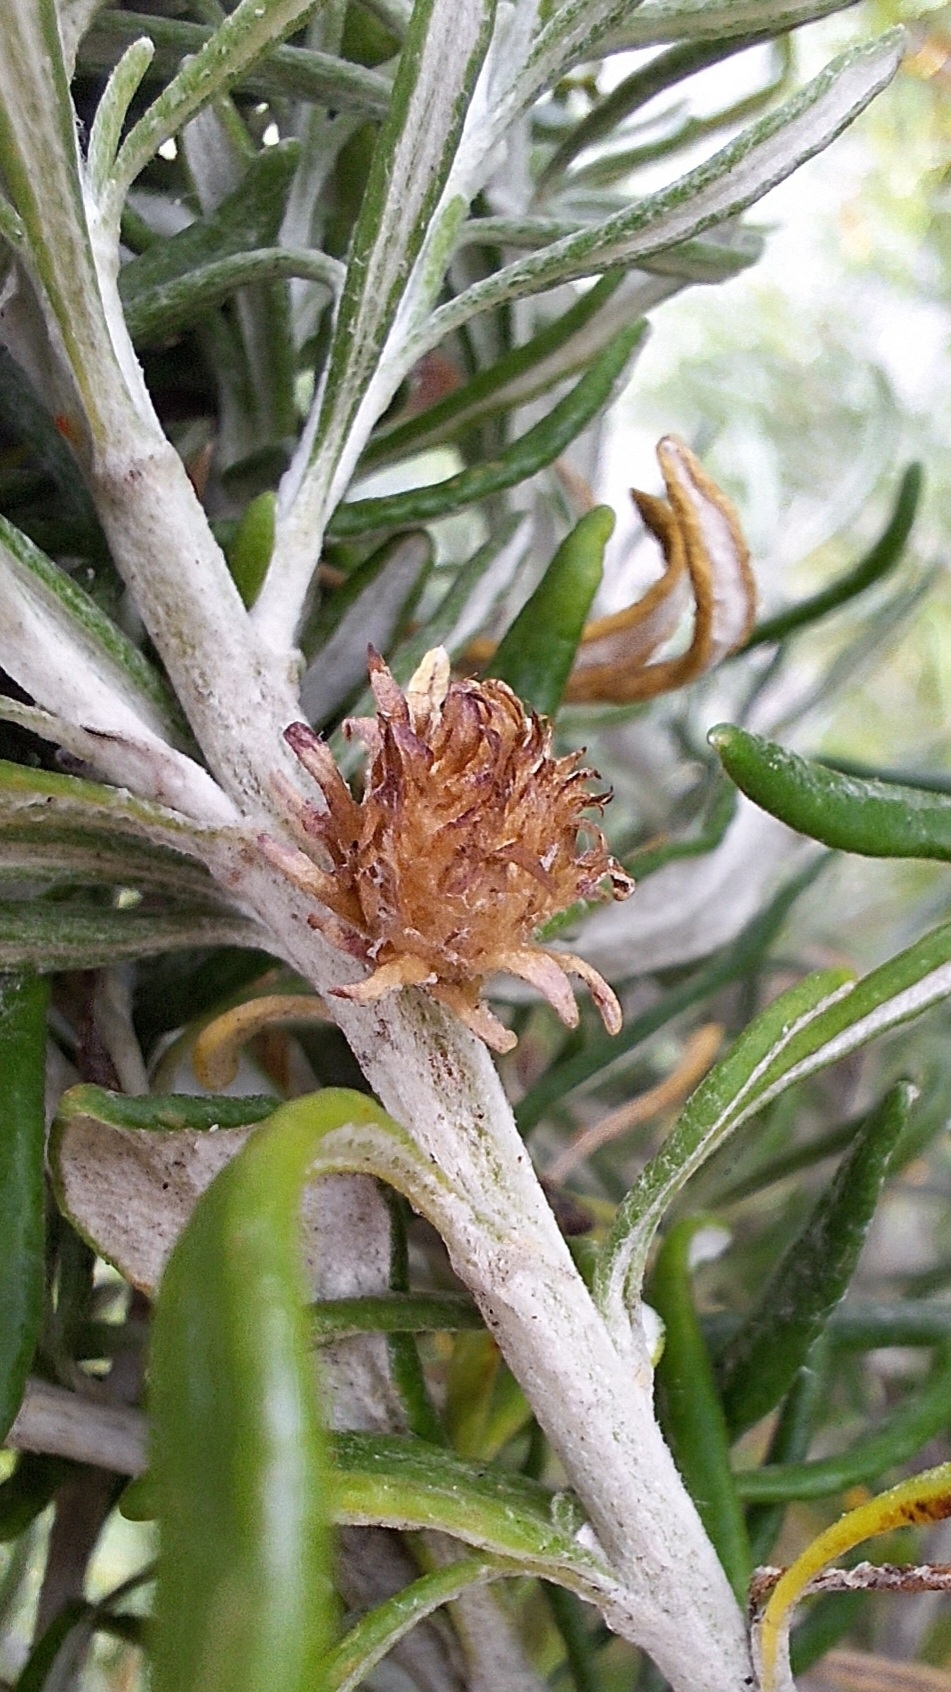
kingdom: Animalia
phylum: Arthropoda
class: Insecta
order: Diptera
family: Cecidomyiidae
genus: Trigonomyia
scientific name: Trigonomyia cristata
